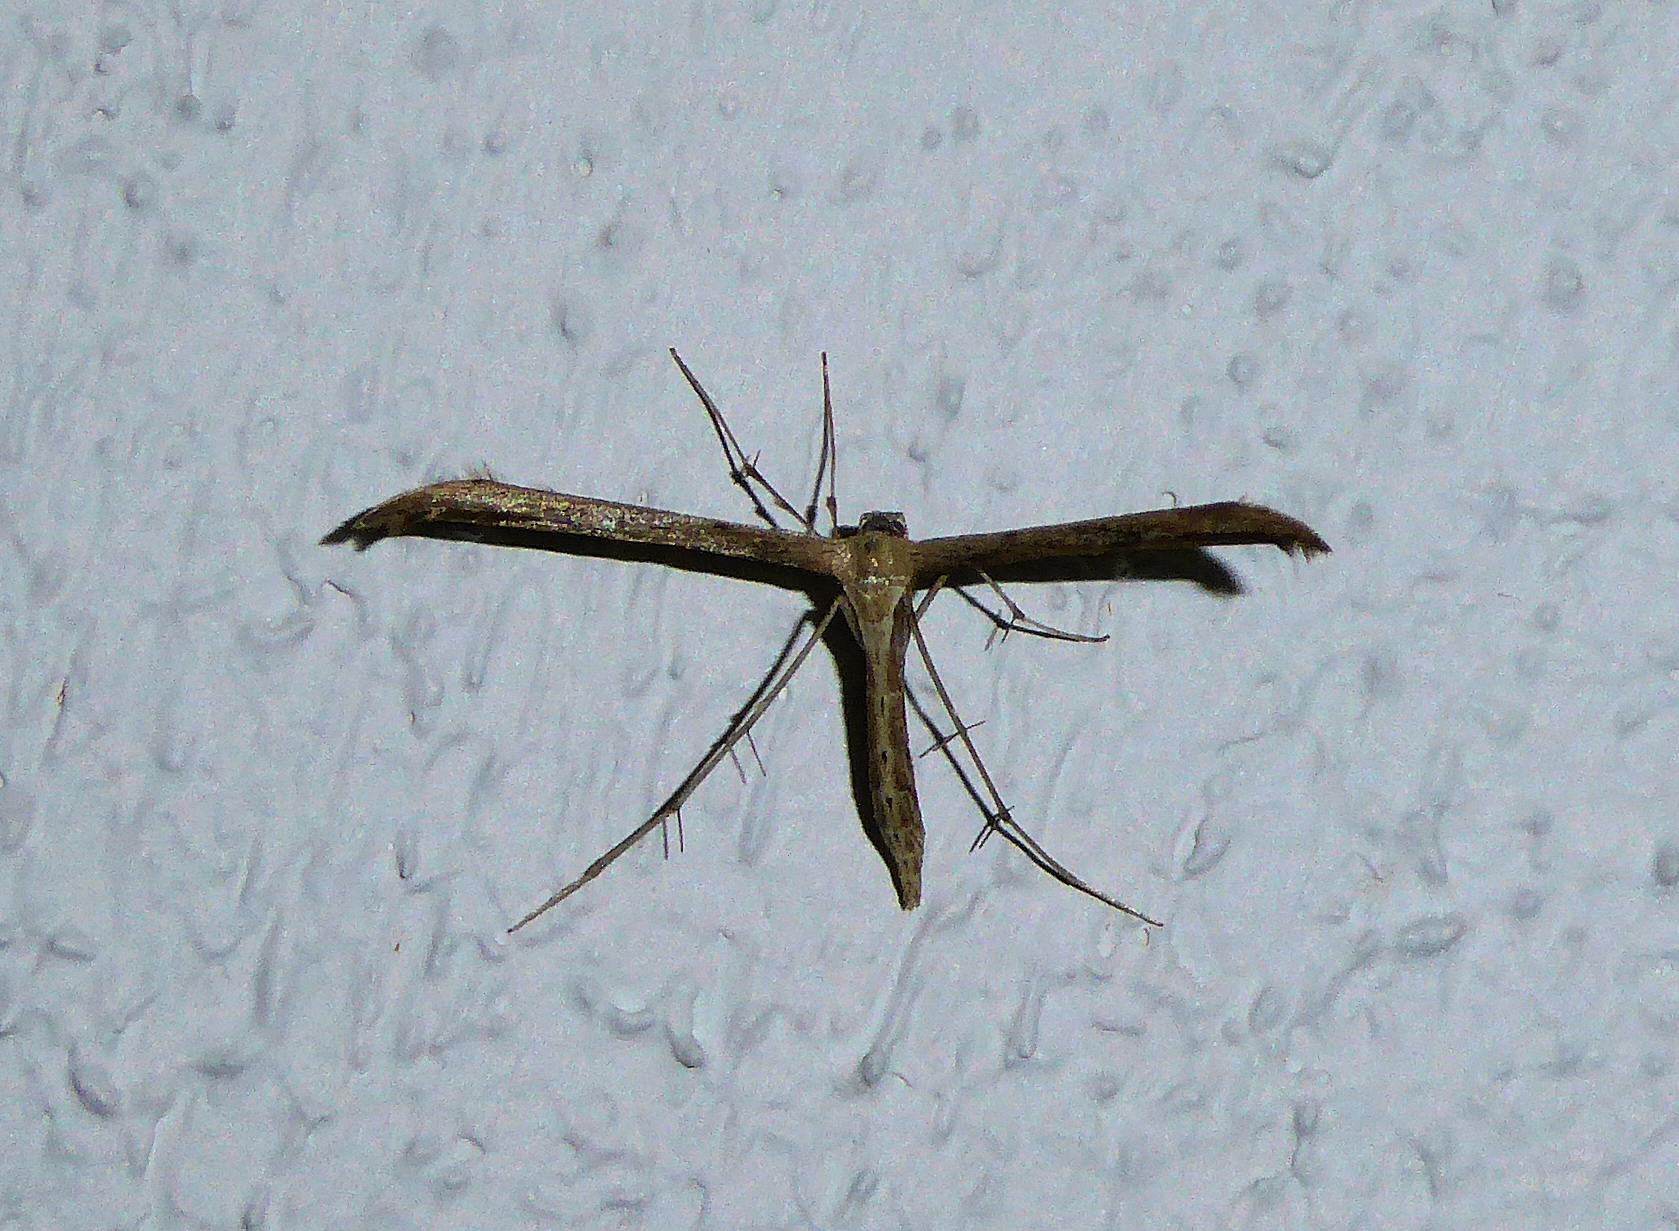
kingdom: Animalia
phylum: Arthropoda
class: Insecta
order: Lepidoptera
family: Pterophoridae
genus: Emmelina
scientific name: Emmelina monodactyla
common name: Common plume
